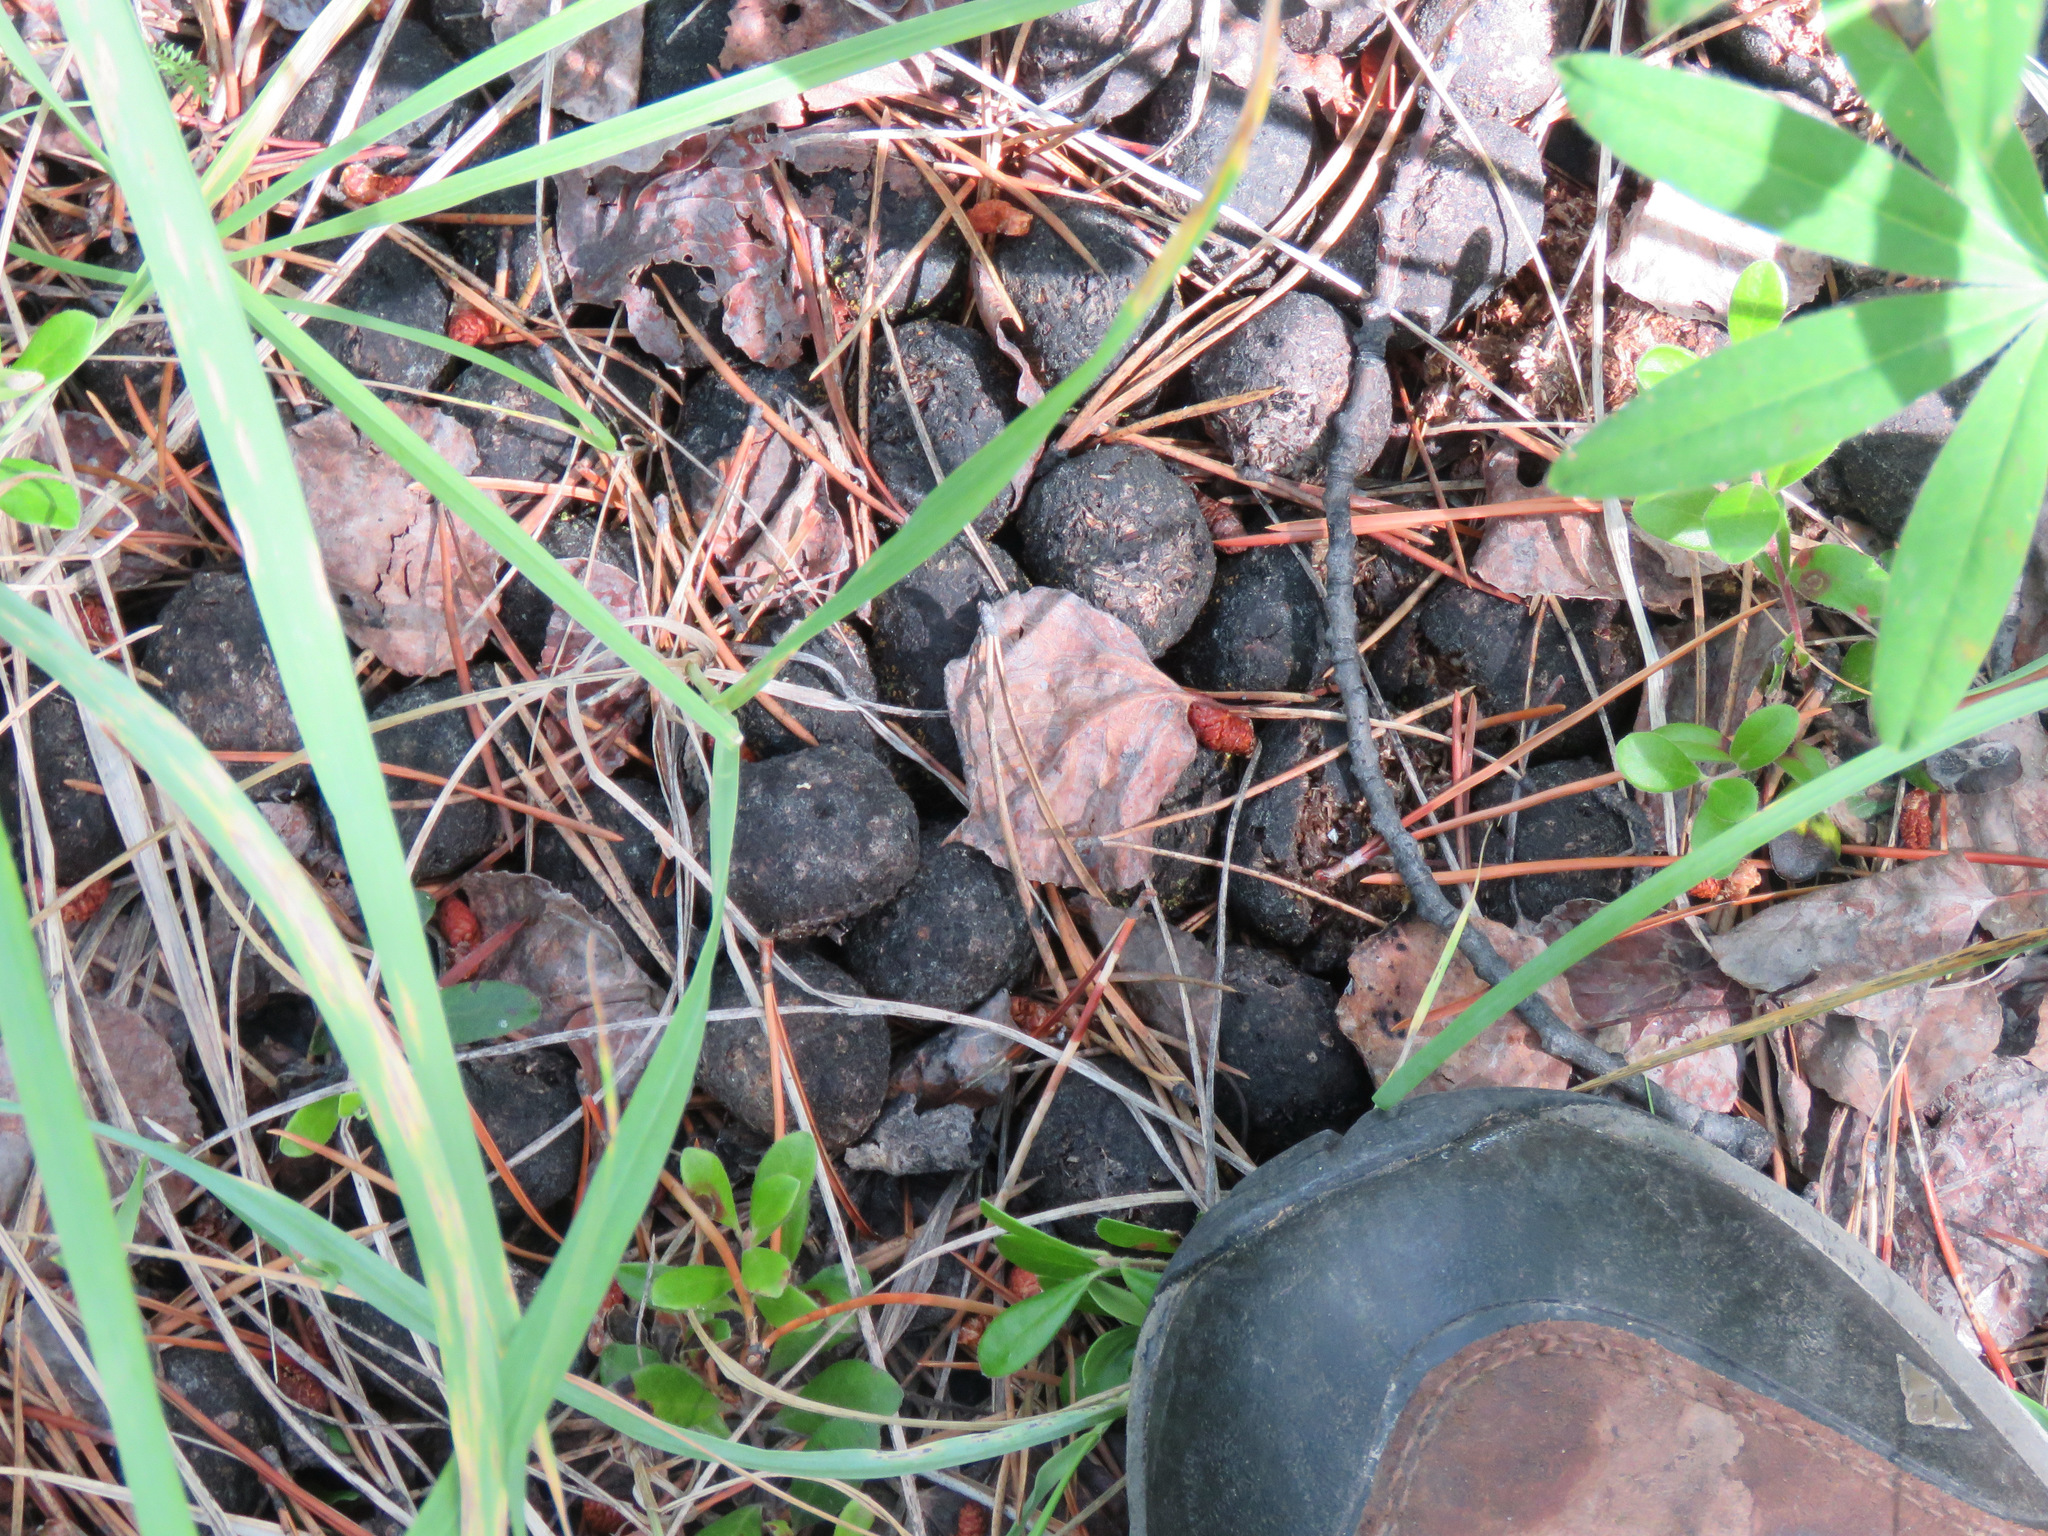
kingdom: Animalia
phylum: Chordata
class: Mammalia
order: Artiodactyla
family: Cervidae
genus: Alces
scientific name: Alces alces
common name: Moose
